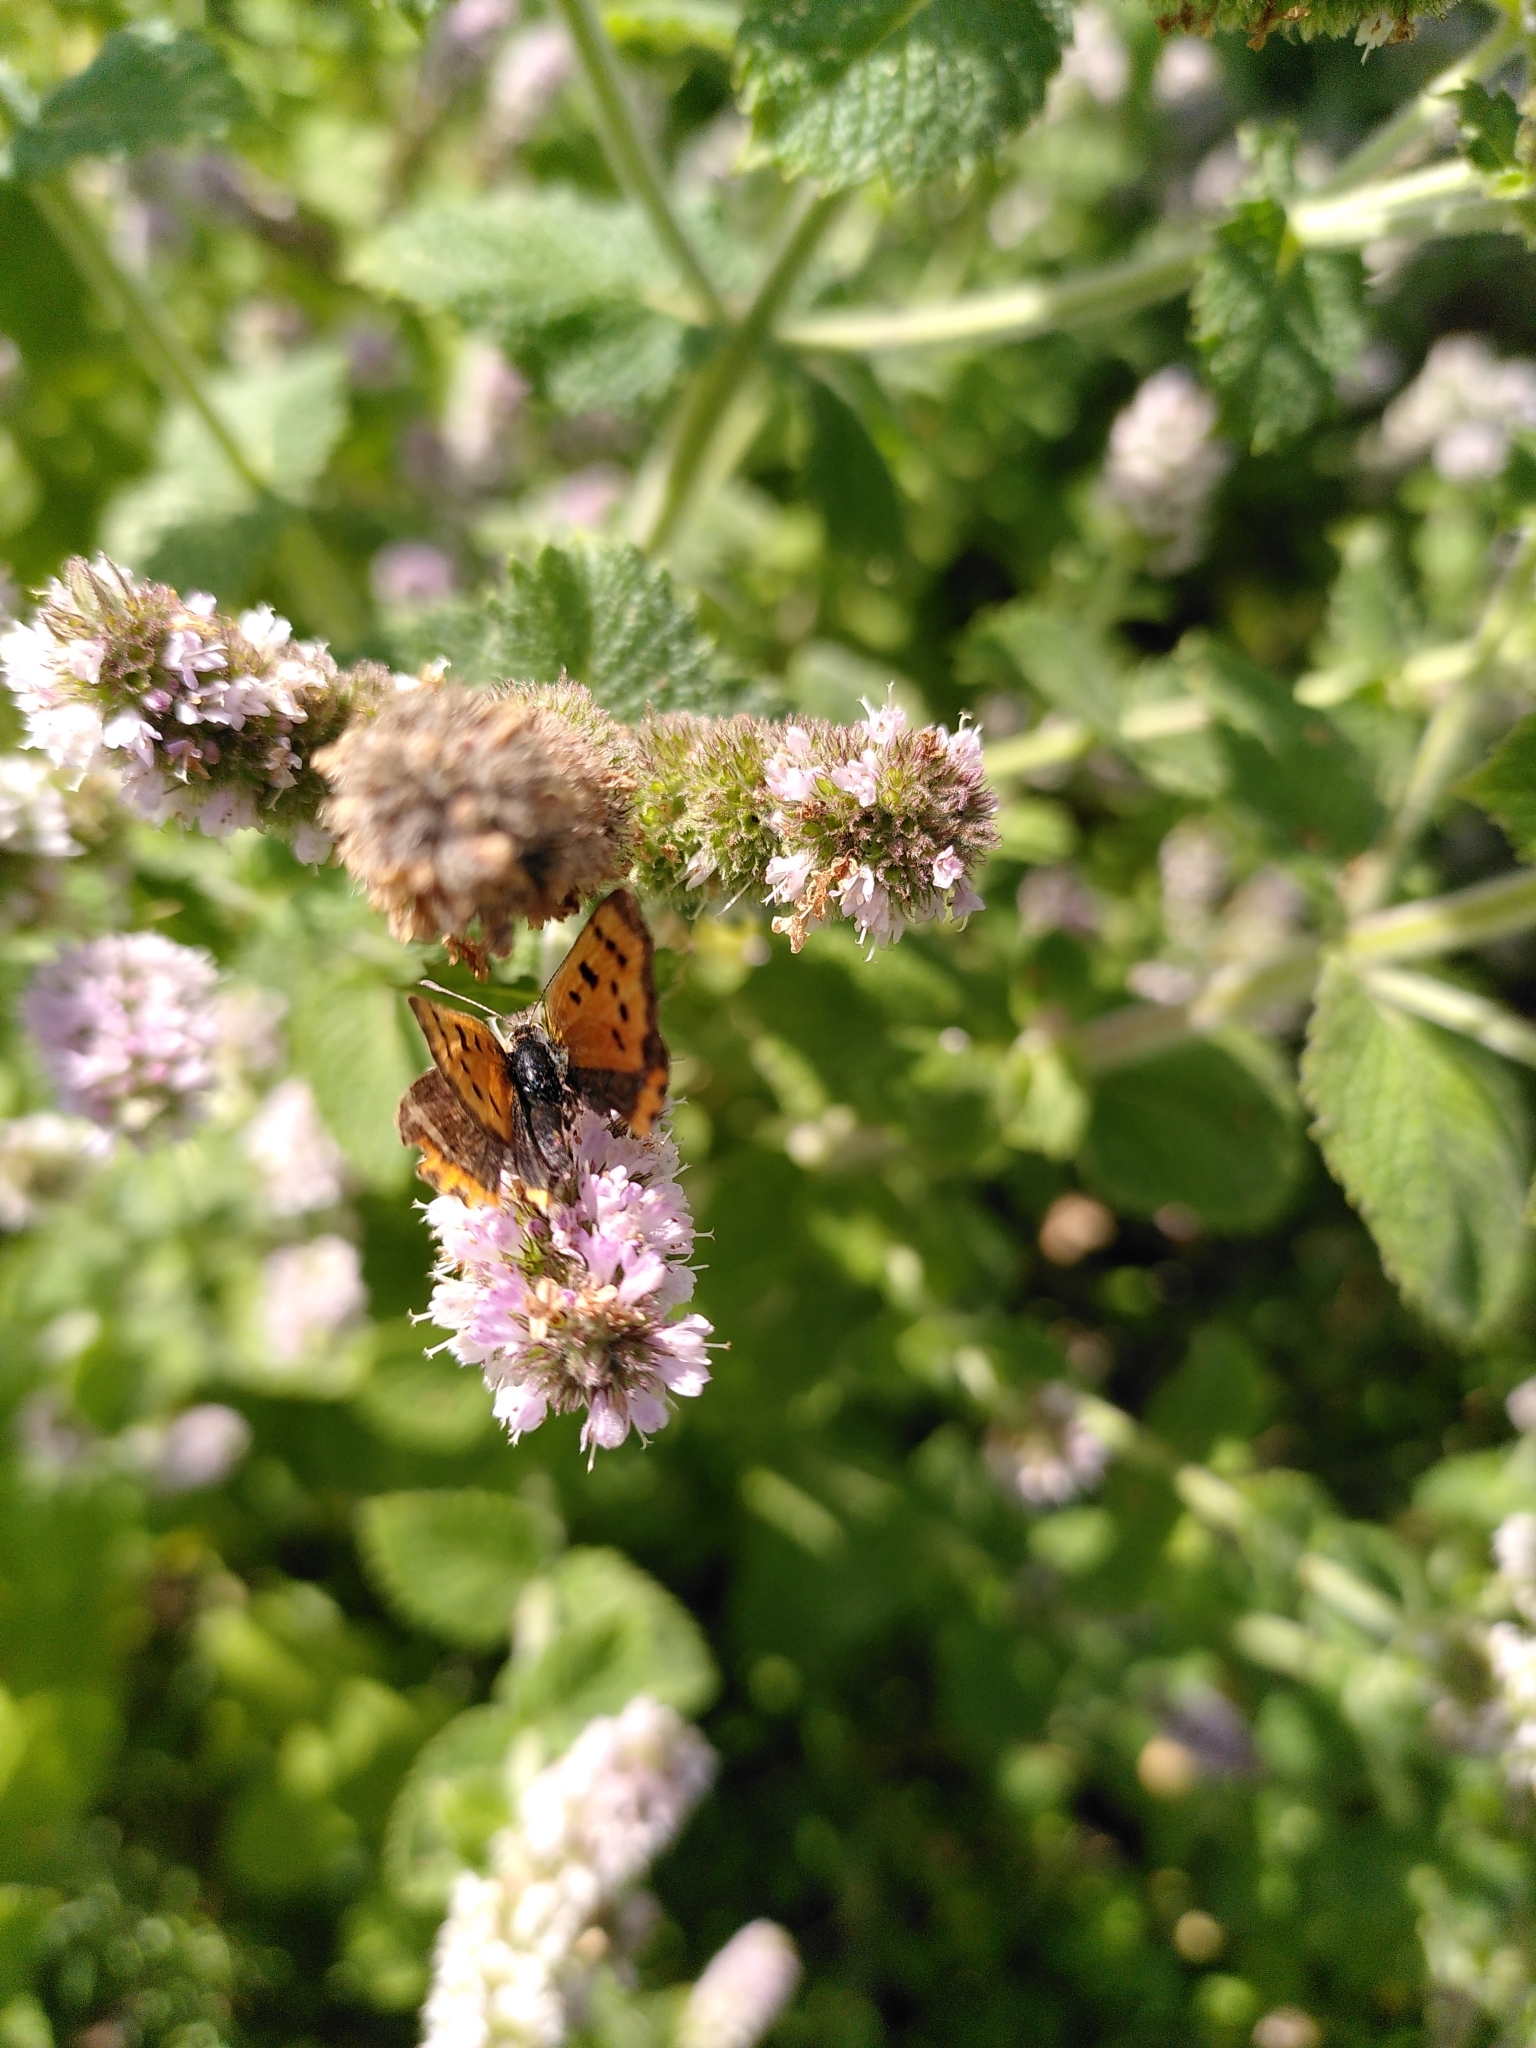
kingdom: Animalia
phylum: Arthropoda
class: Insecta
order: Lepidoptera
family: Lycaenidae
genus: Lycaena
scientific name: Lycaena phlaeas
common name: Small copper
